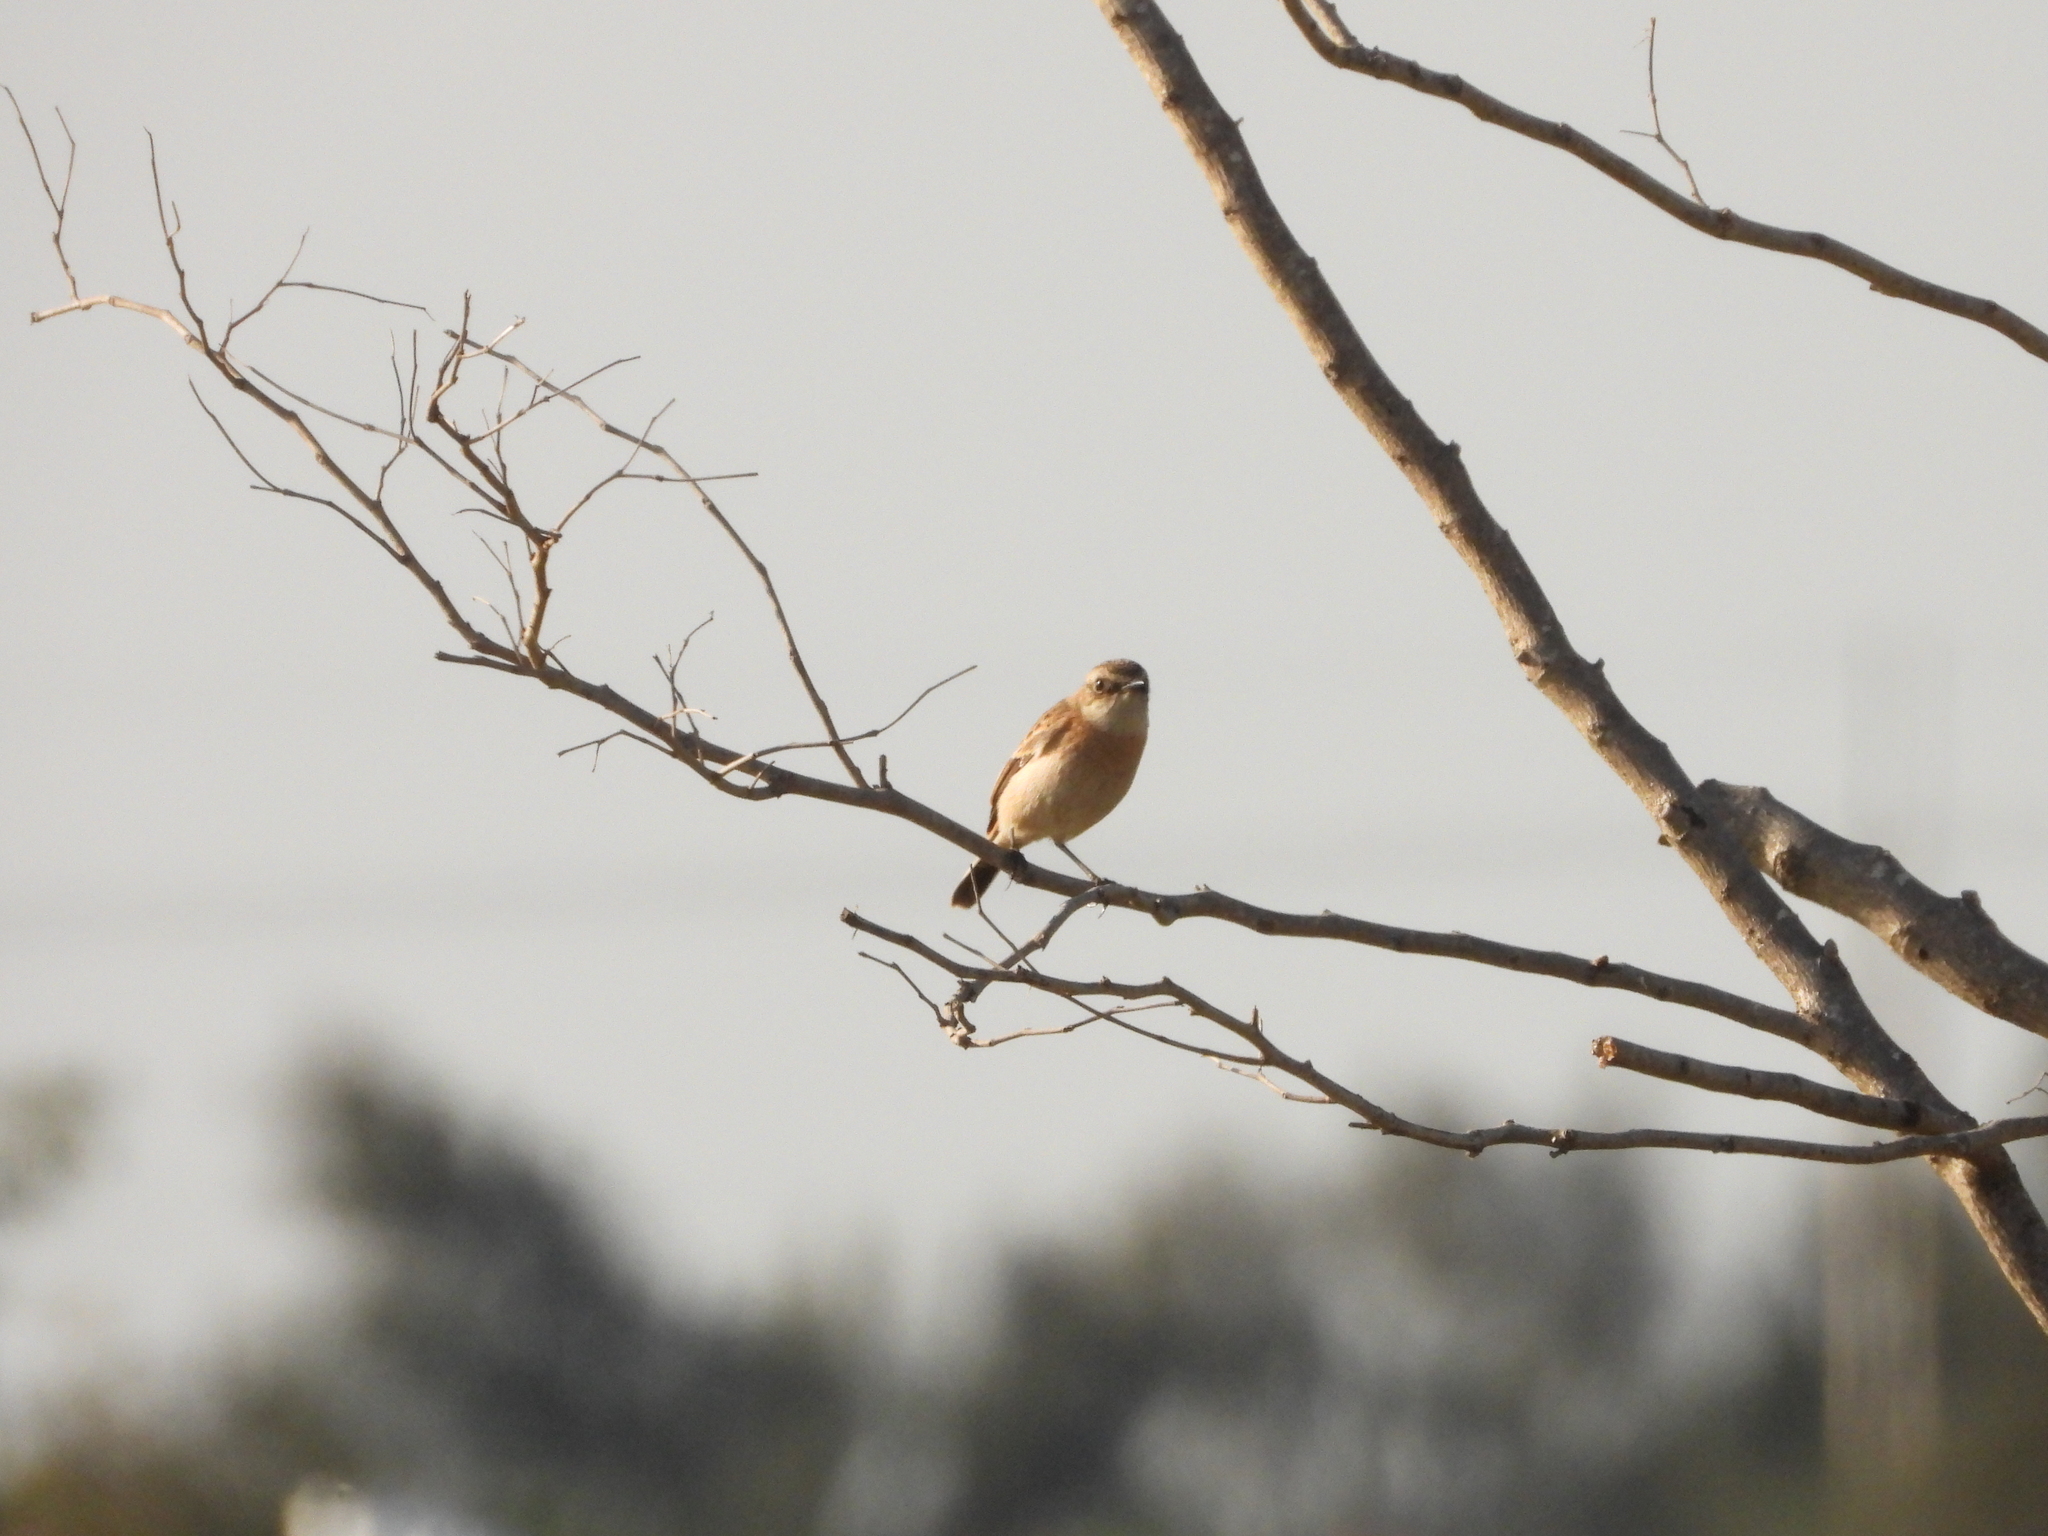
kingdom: Animalia
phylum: Chordata
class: Aves
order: Passeriformes
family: Muscicapidae
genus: Saxicola
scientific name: Saxicola stejnegeri
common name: Stejneger's stonechat
